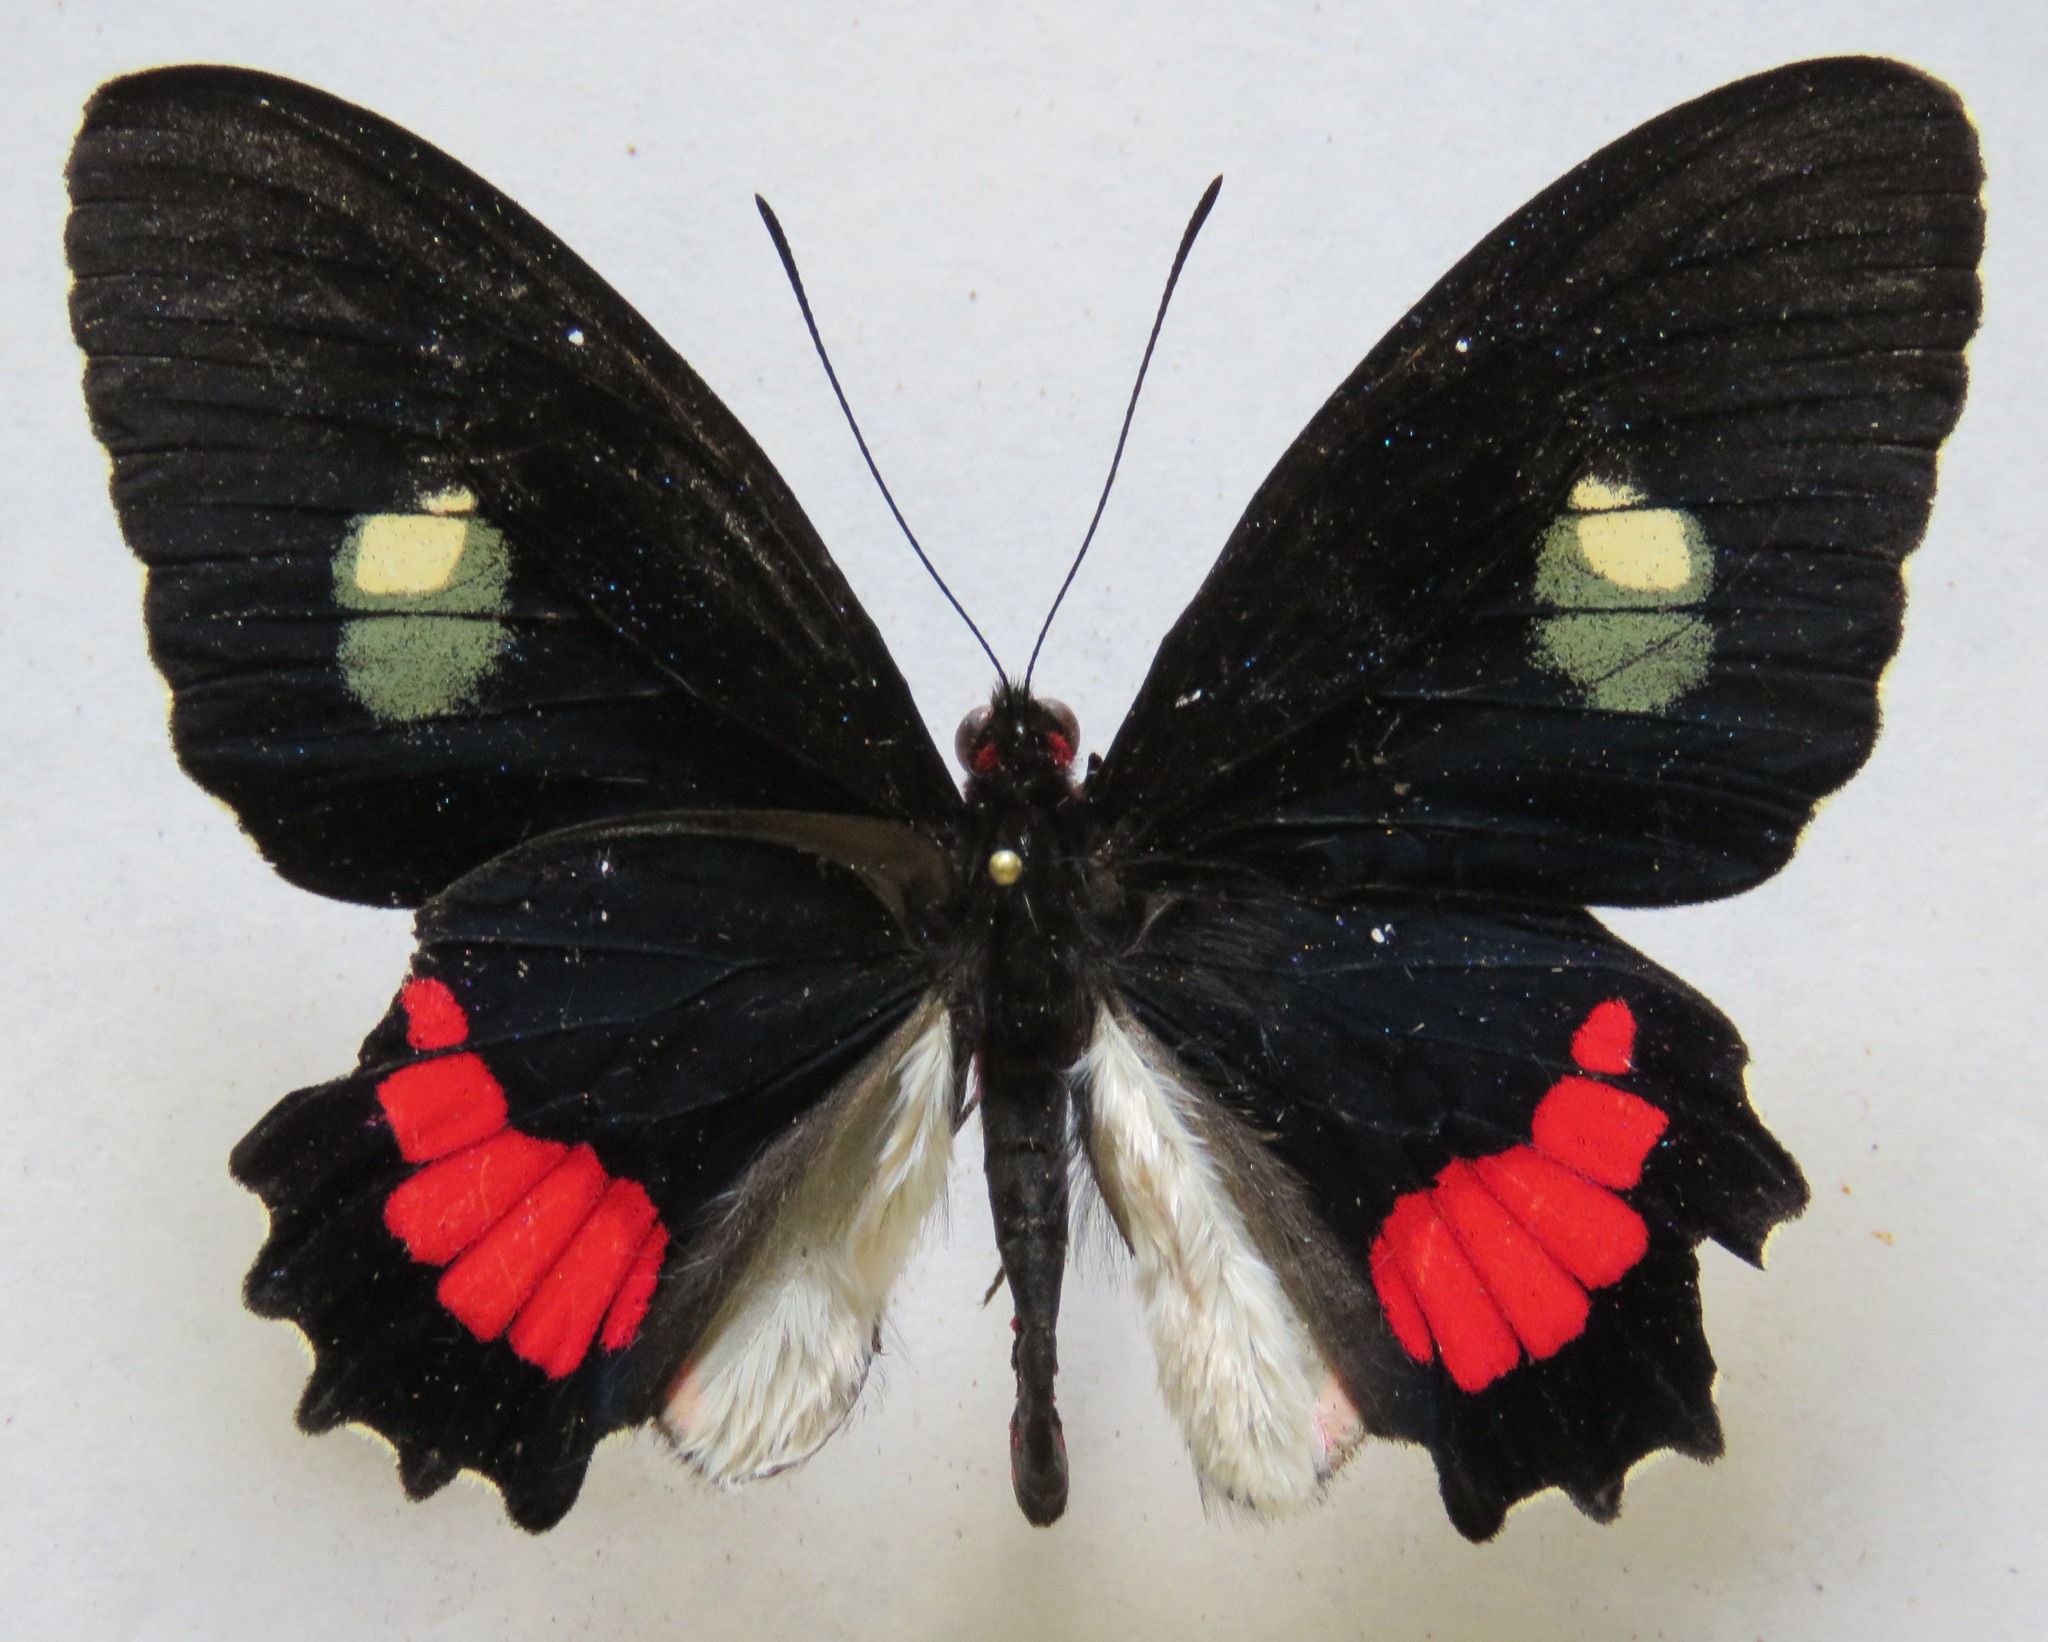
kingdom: Animalia
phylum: Arthropoda
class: Insecta
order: Lepidoptera
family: Papilionidae
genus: Parides
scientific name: Parides iphidamas
